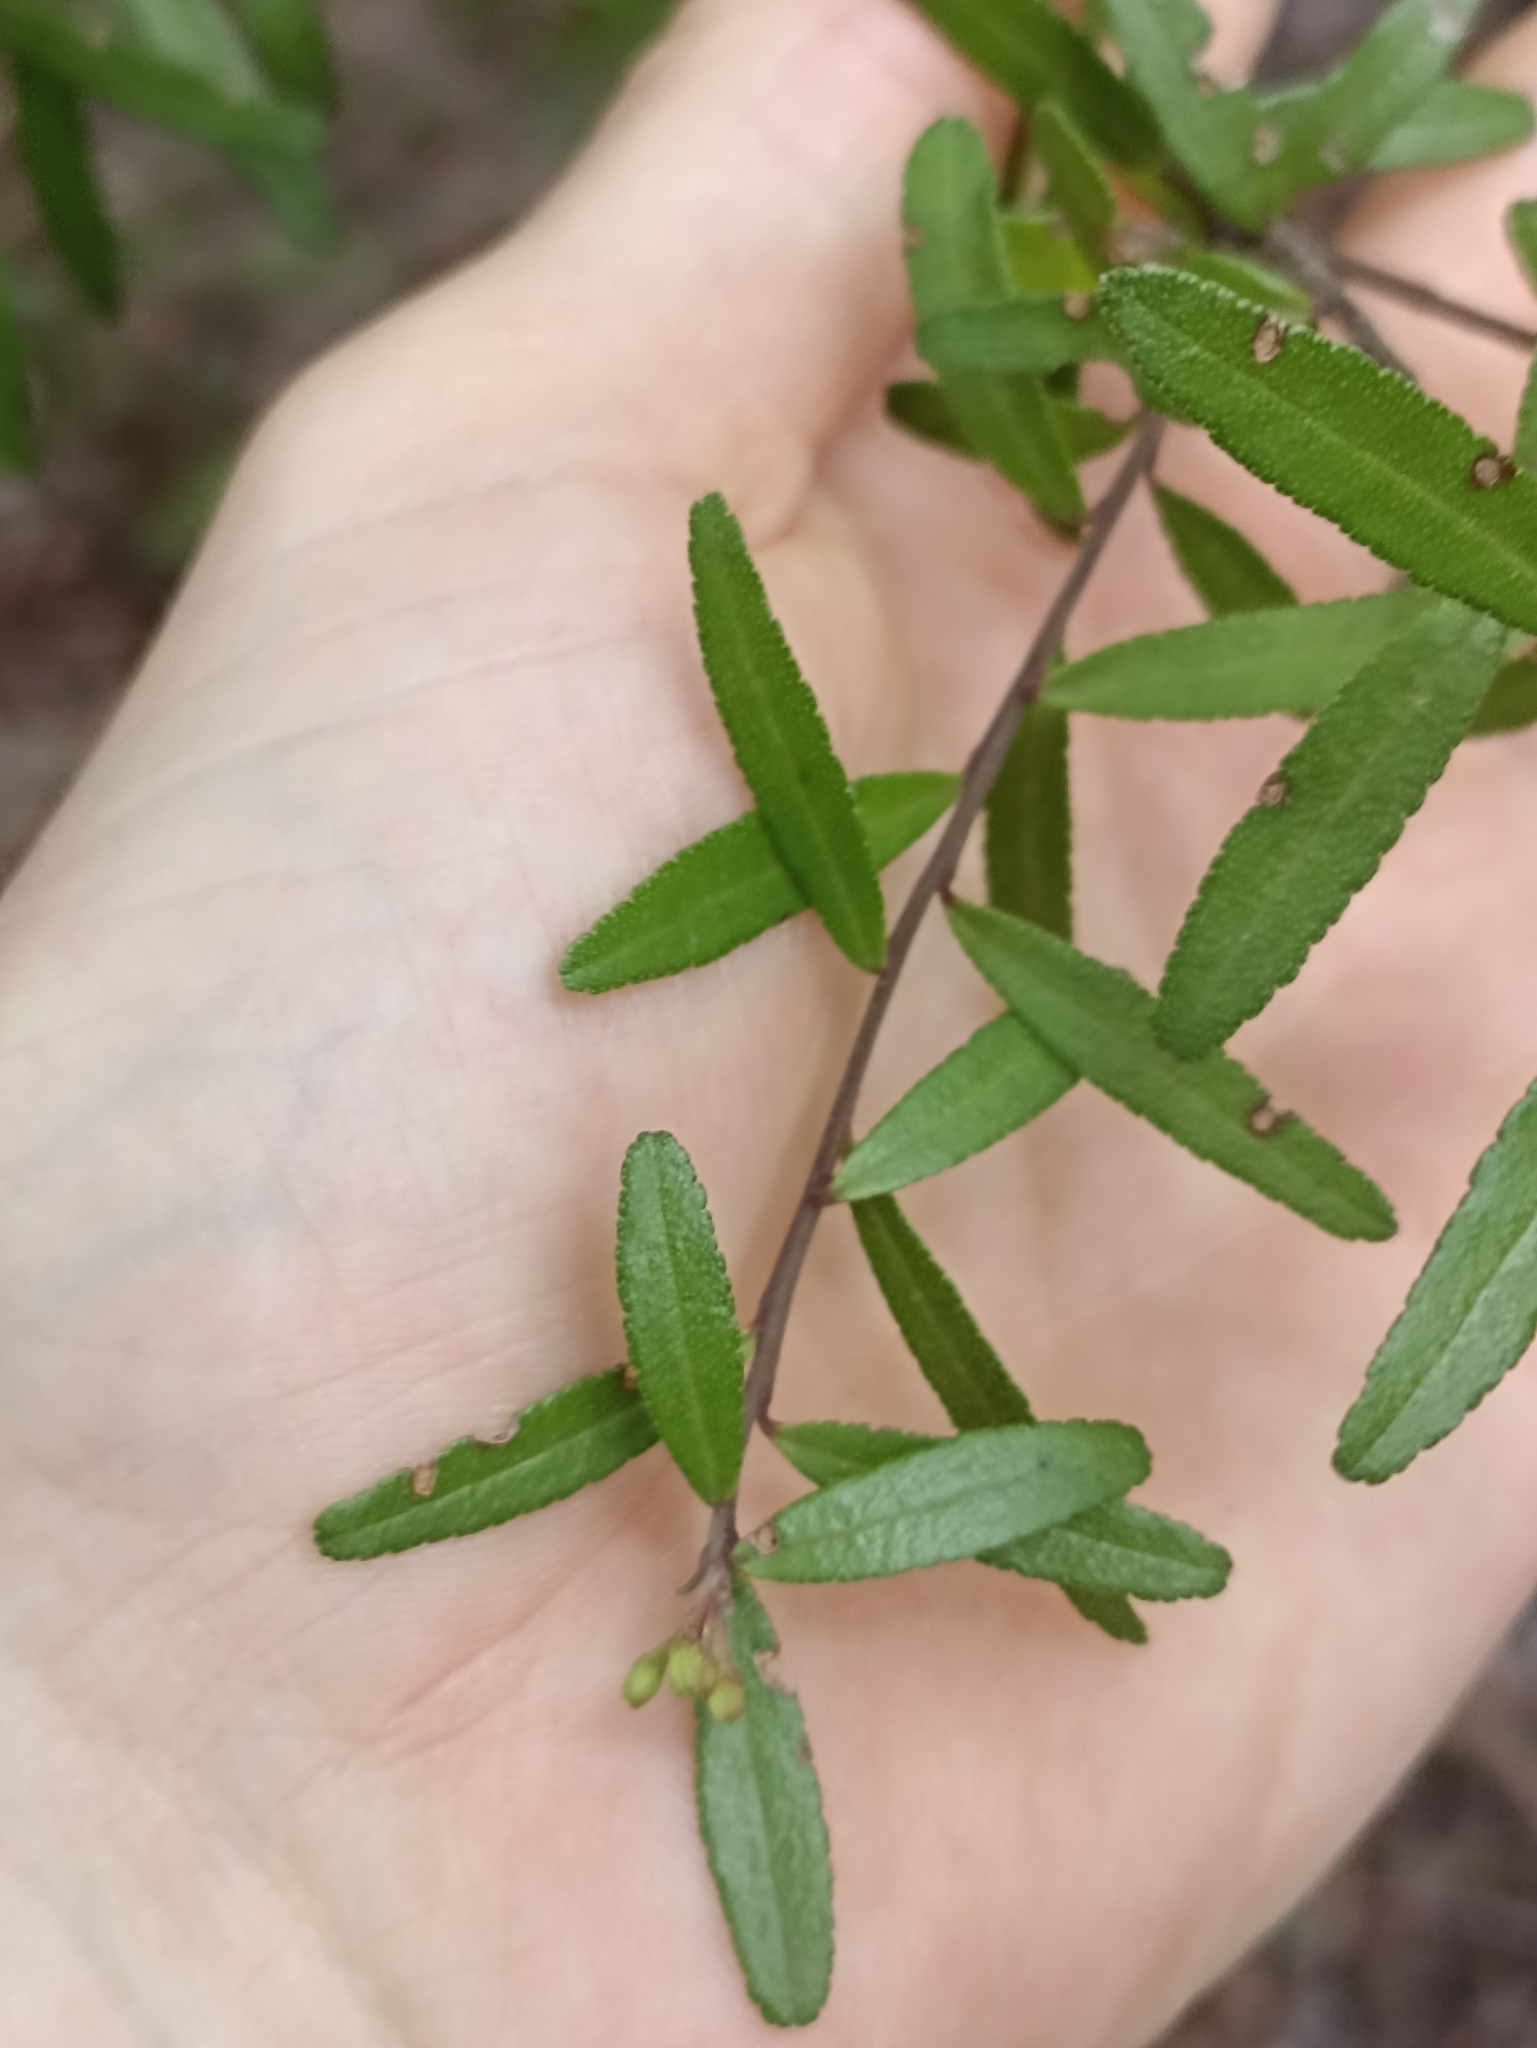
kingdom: Plantae
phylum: Tracheophyta
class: Magnoliopsida
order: Sapindales
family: Rutaceae
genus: Leionema
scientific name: Leionema nudum
